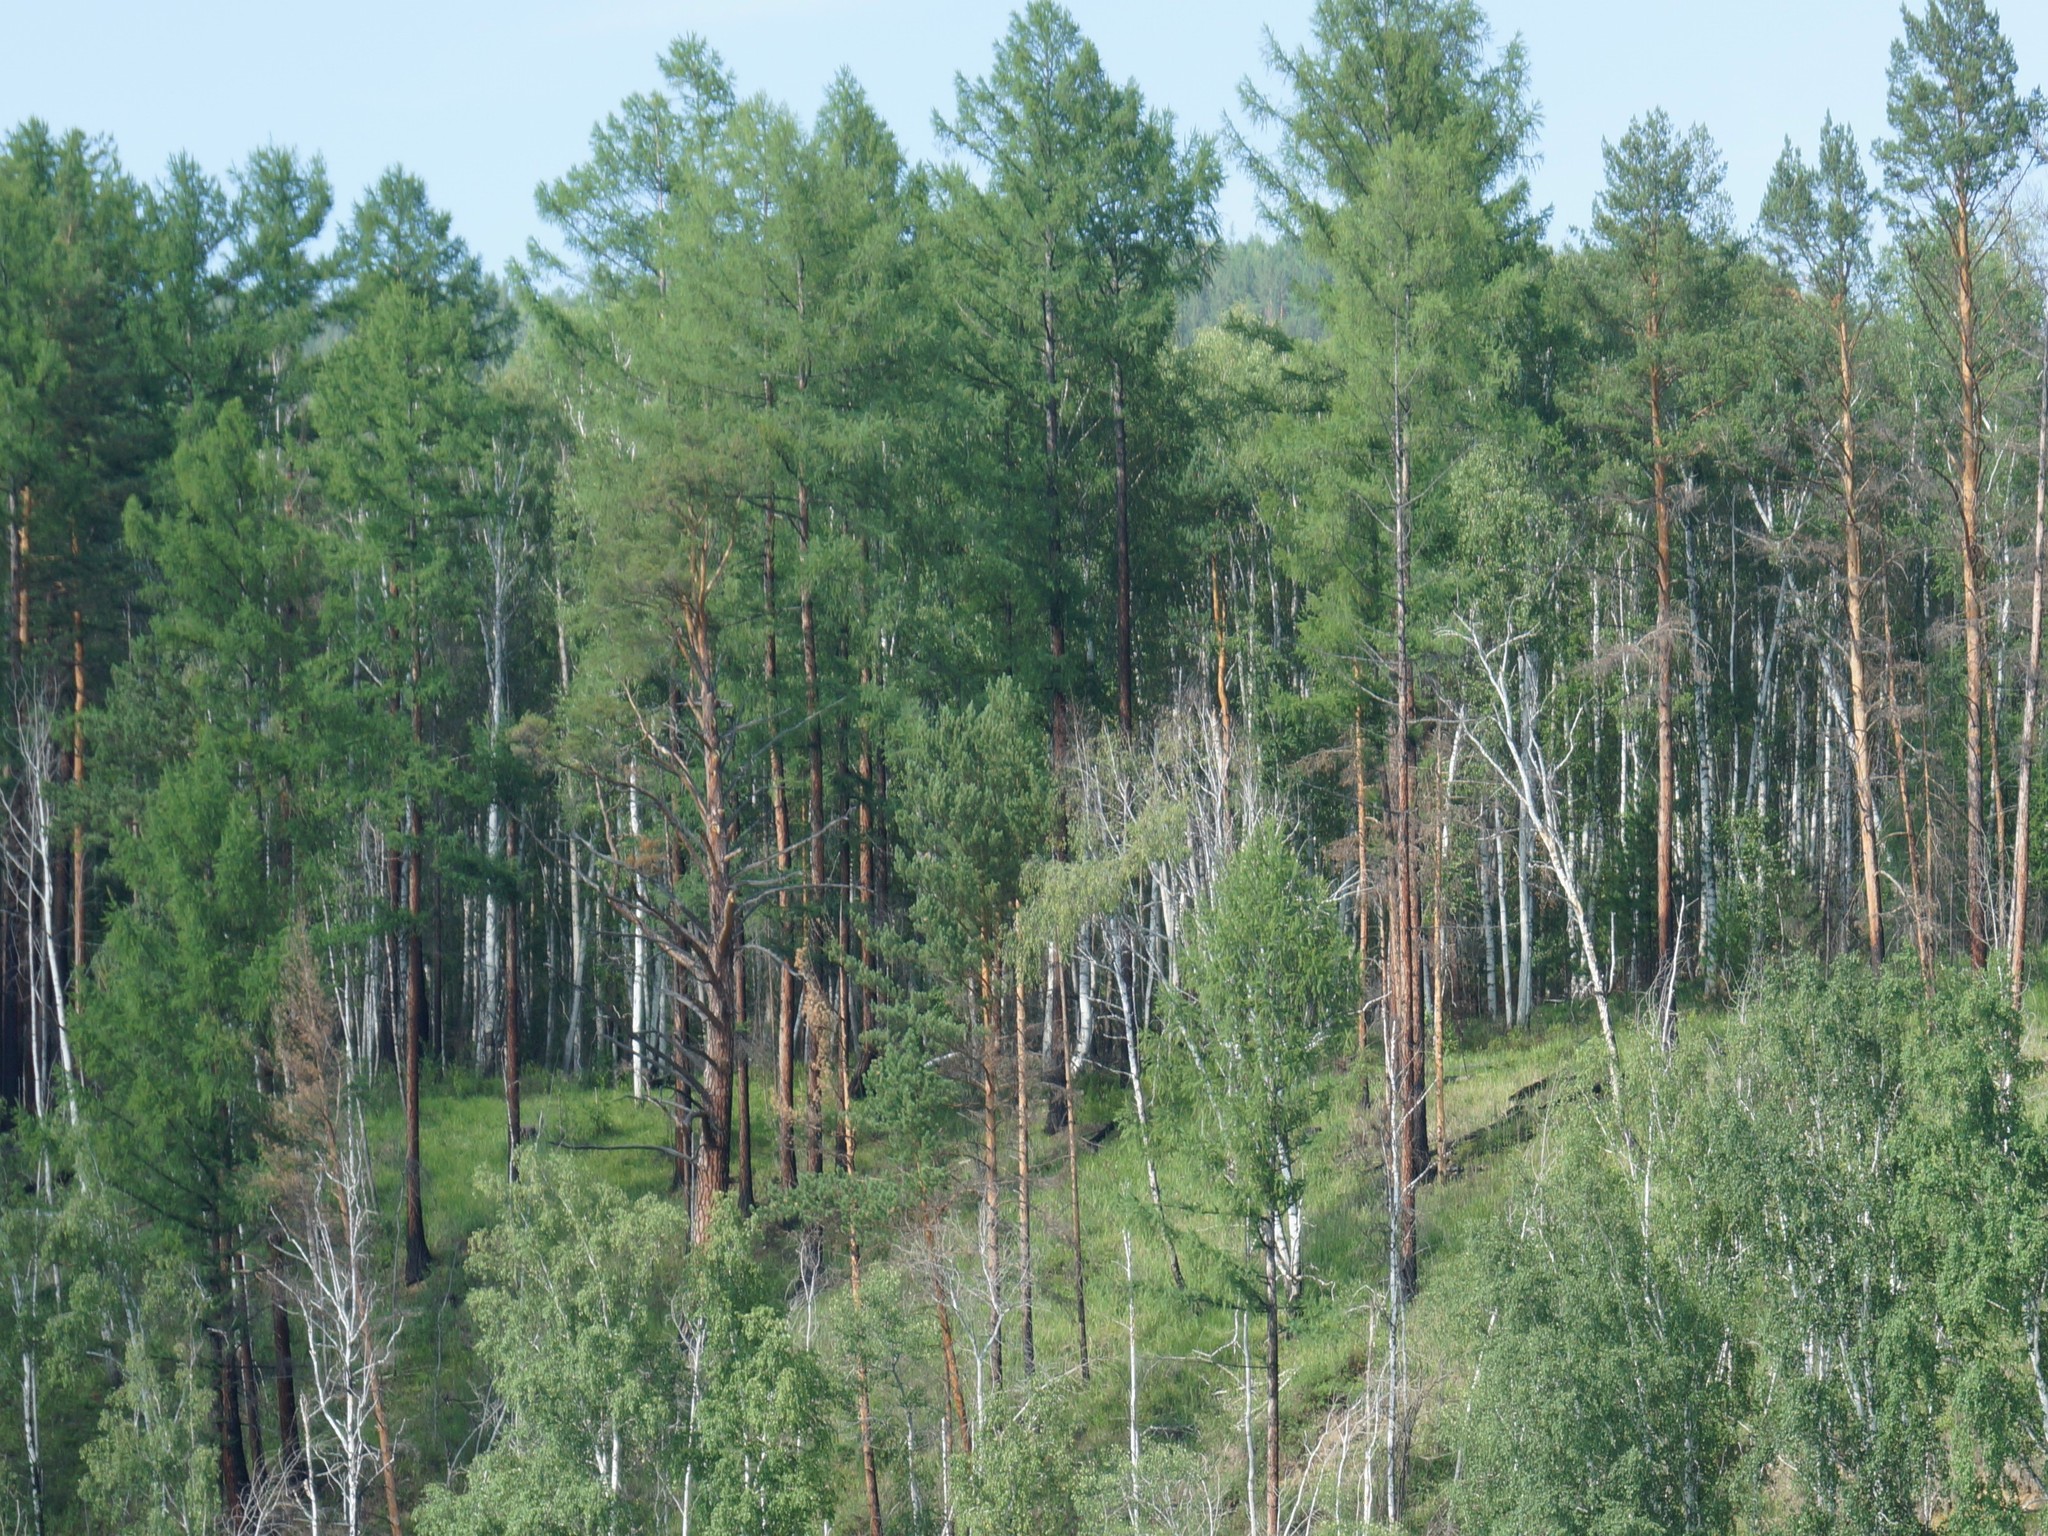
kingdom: Plantae
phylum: Tracheophyta
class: Pinopsida
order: Pinales
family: Pinaceae
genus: Pinus
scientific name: Pinus sylvestris
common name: Scots pine
